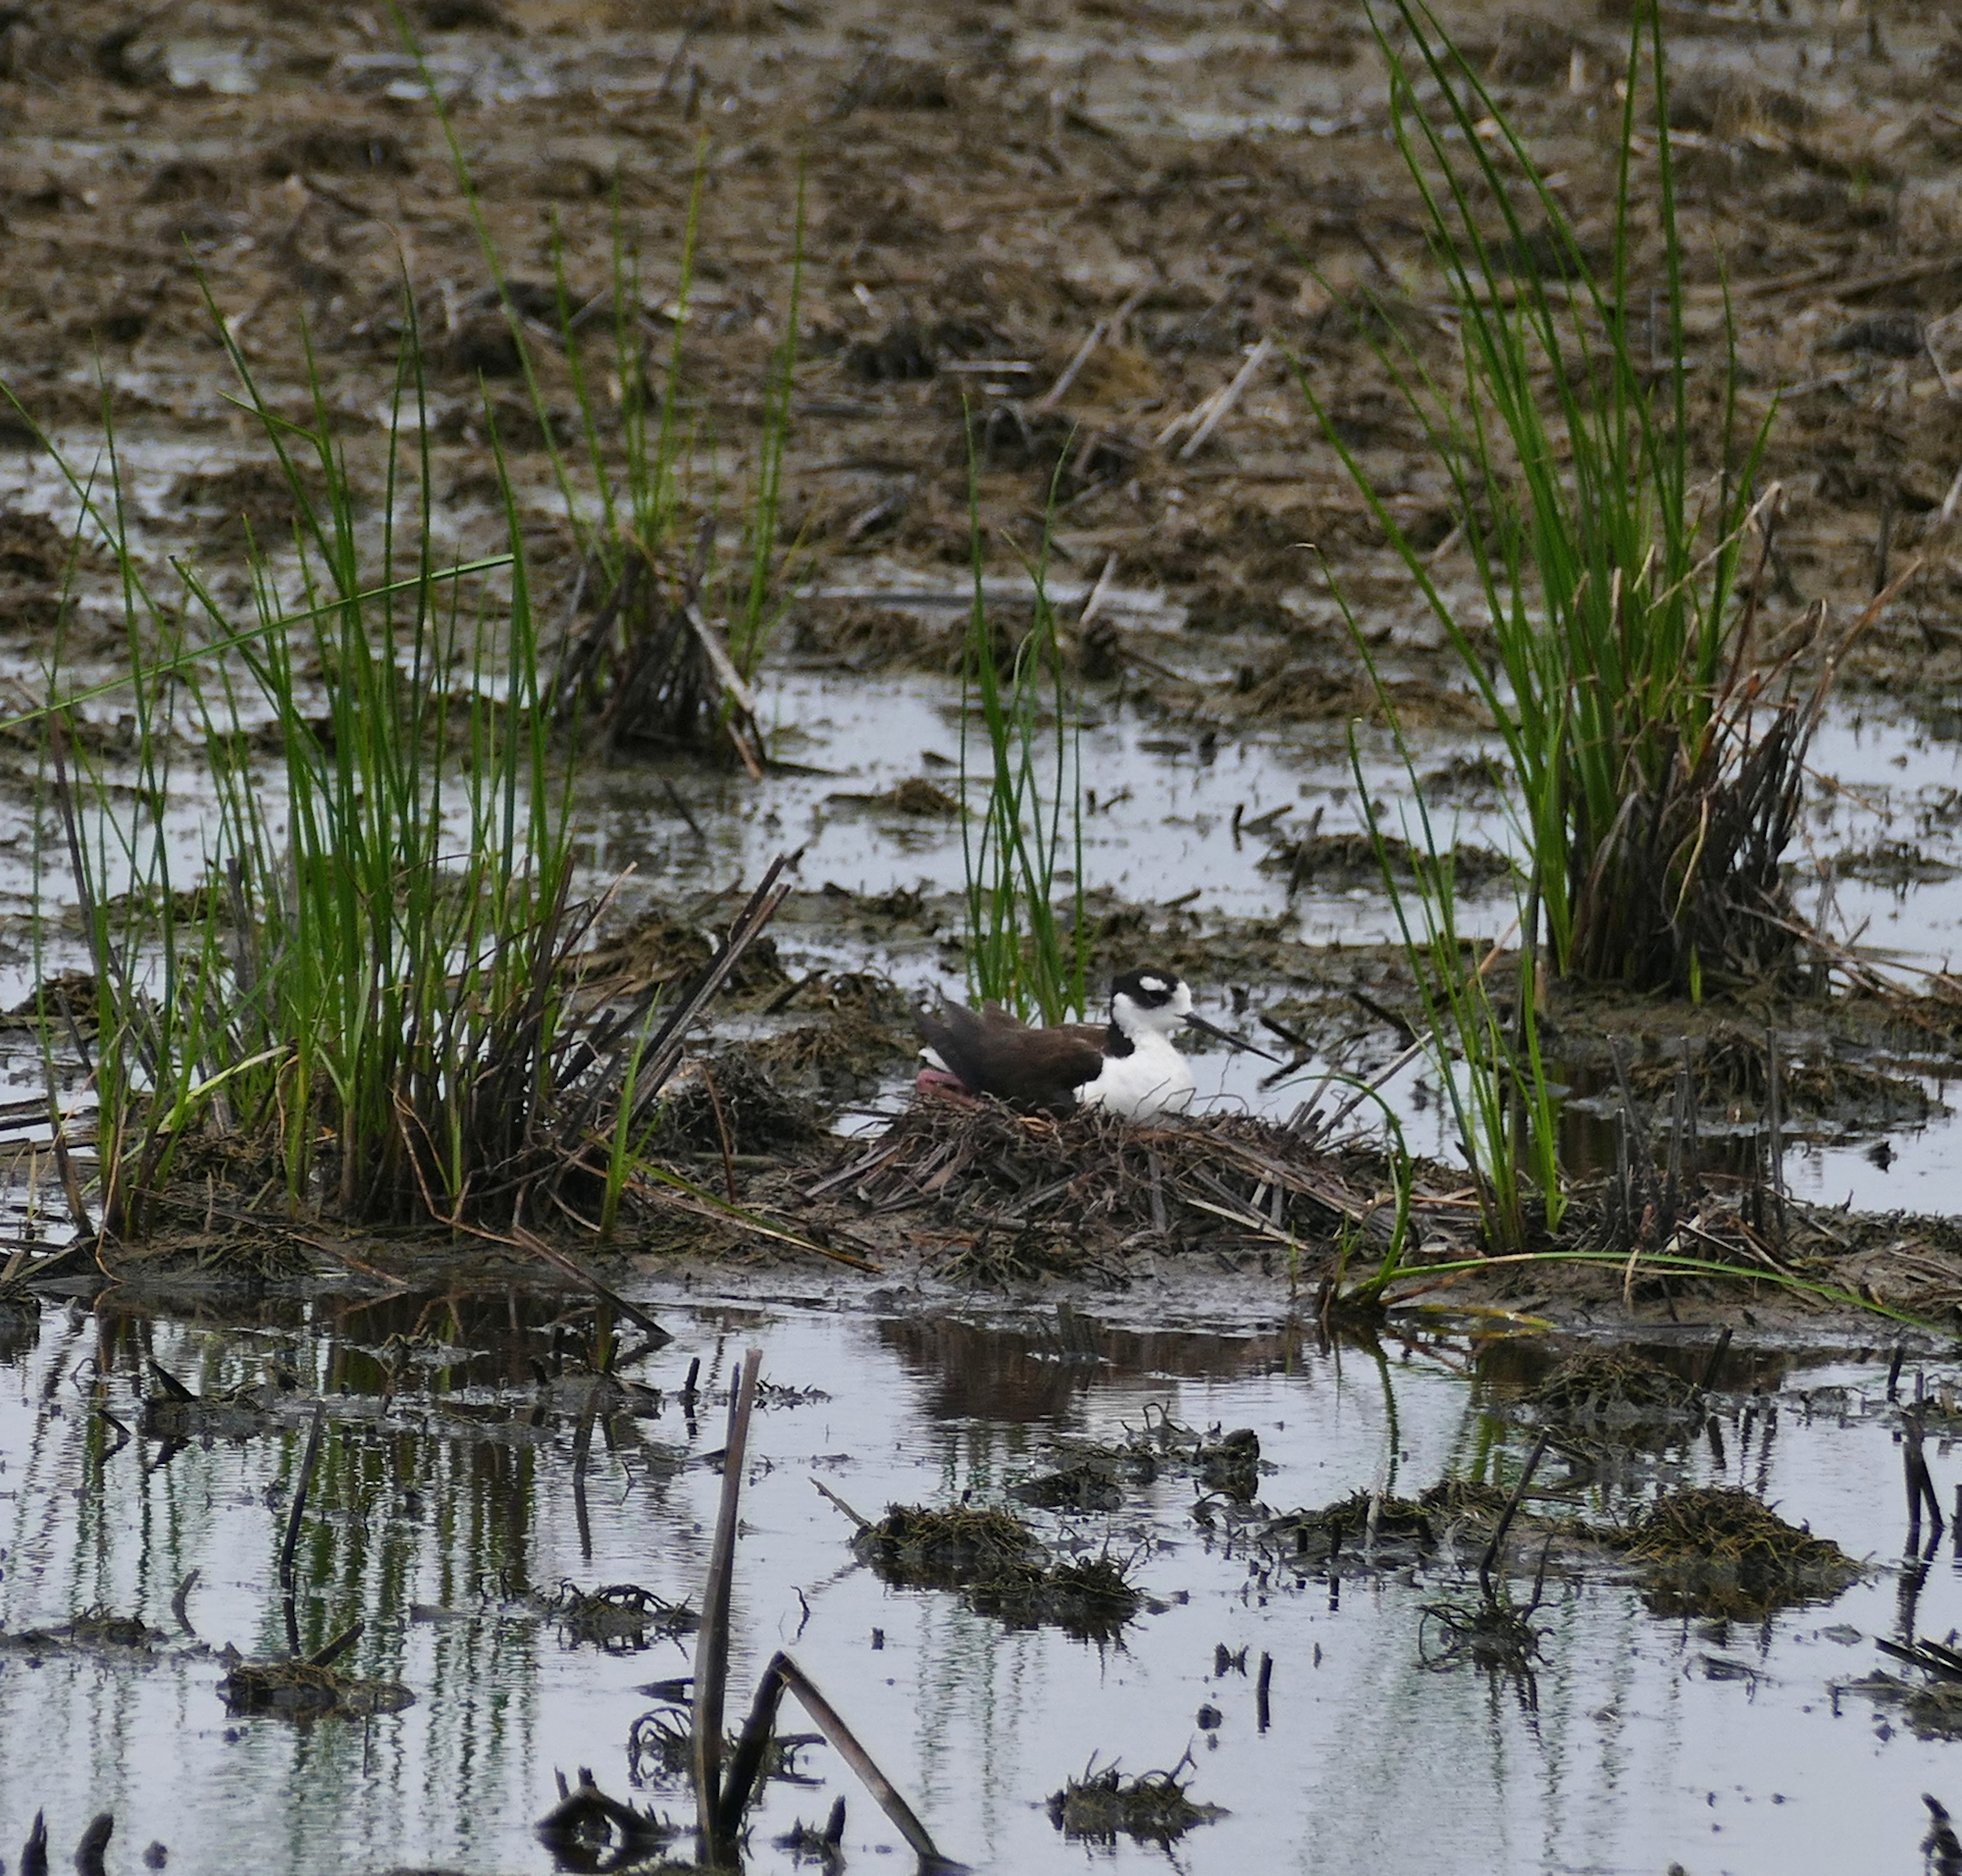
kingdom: Animalia
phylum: Chordata
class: Aves
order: Charadriiformes
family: Recurvirostridae
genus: Himantopus
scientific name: Himantopus mexicanus
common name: Black-necked stilt
